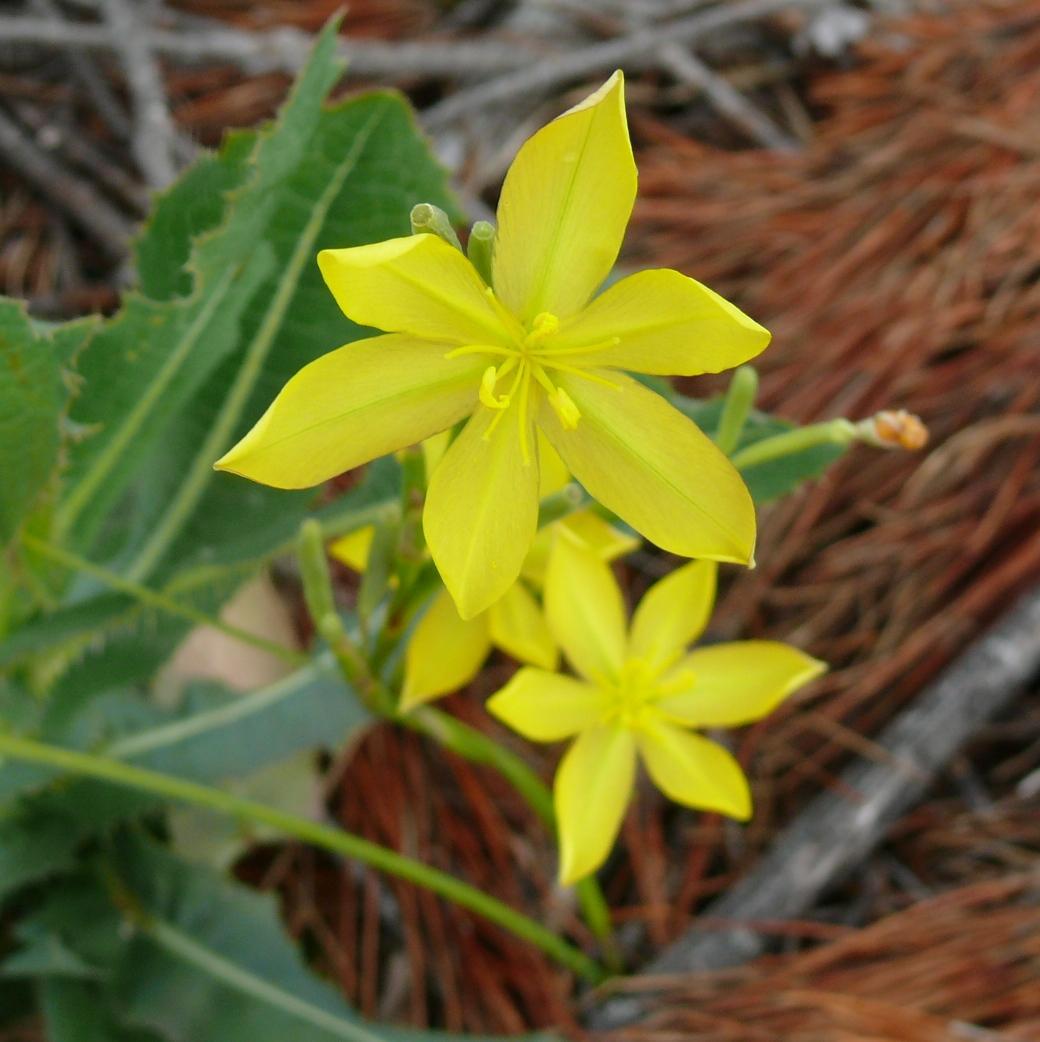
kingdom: Plantae
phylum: Tracheophyta
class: Liliopsida
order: Asparagales
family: Iridaceae
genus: Moraea
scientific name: Moraea lewisiae
